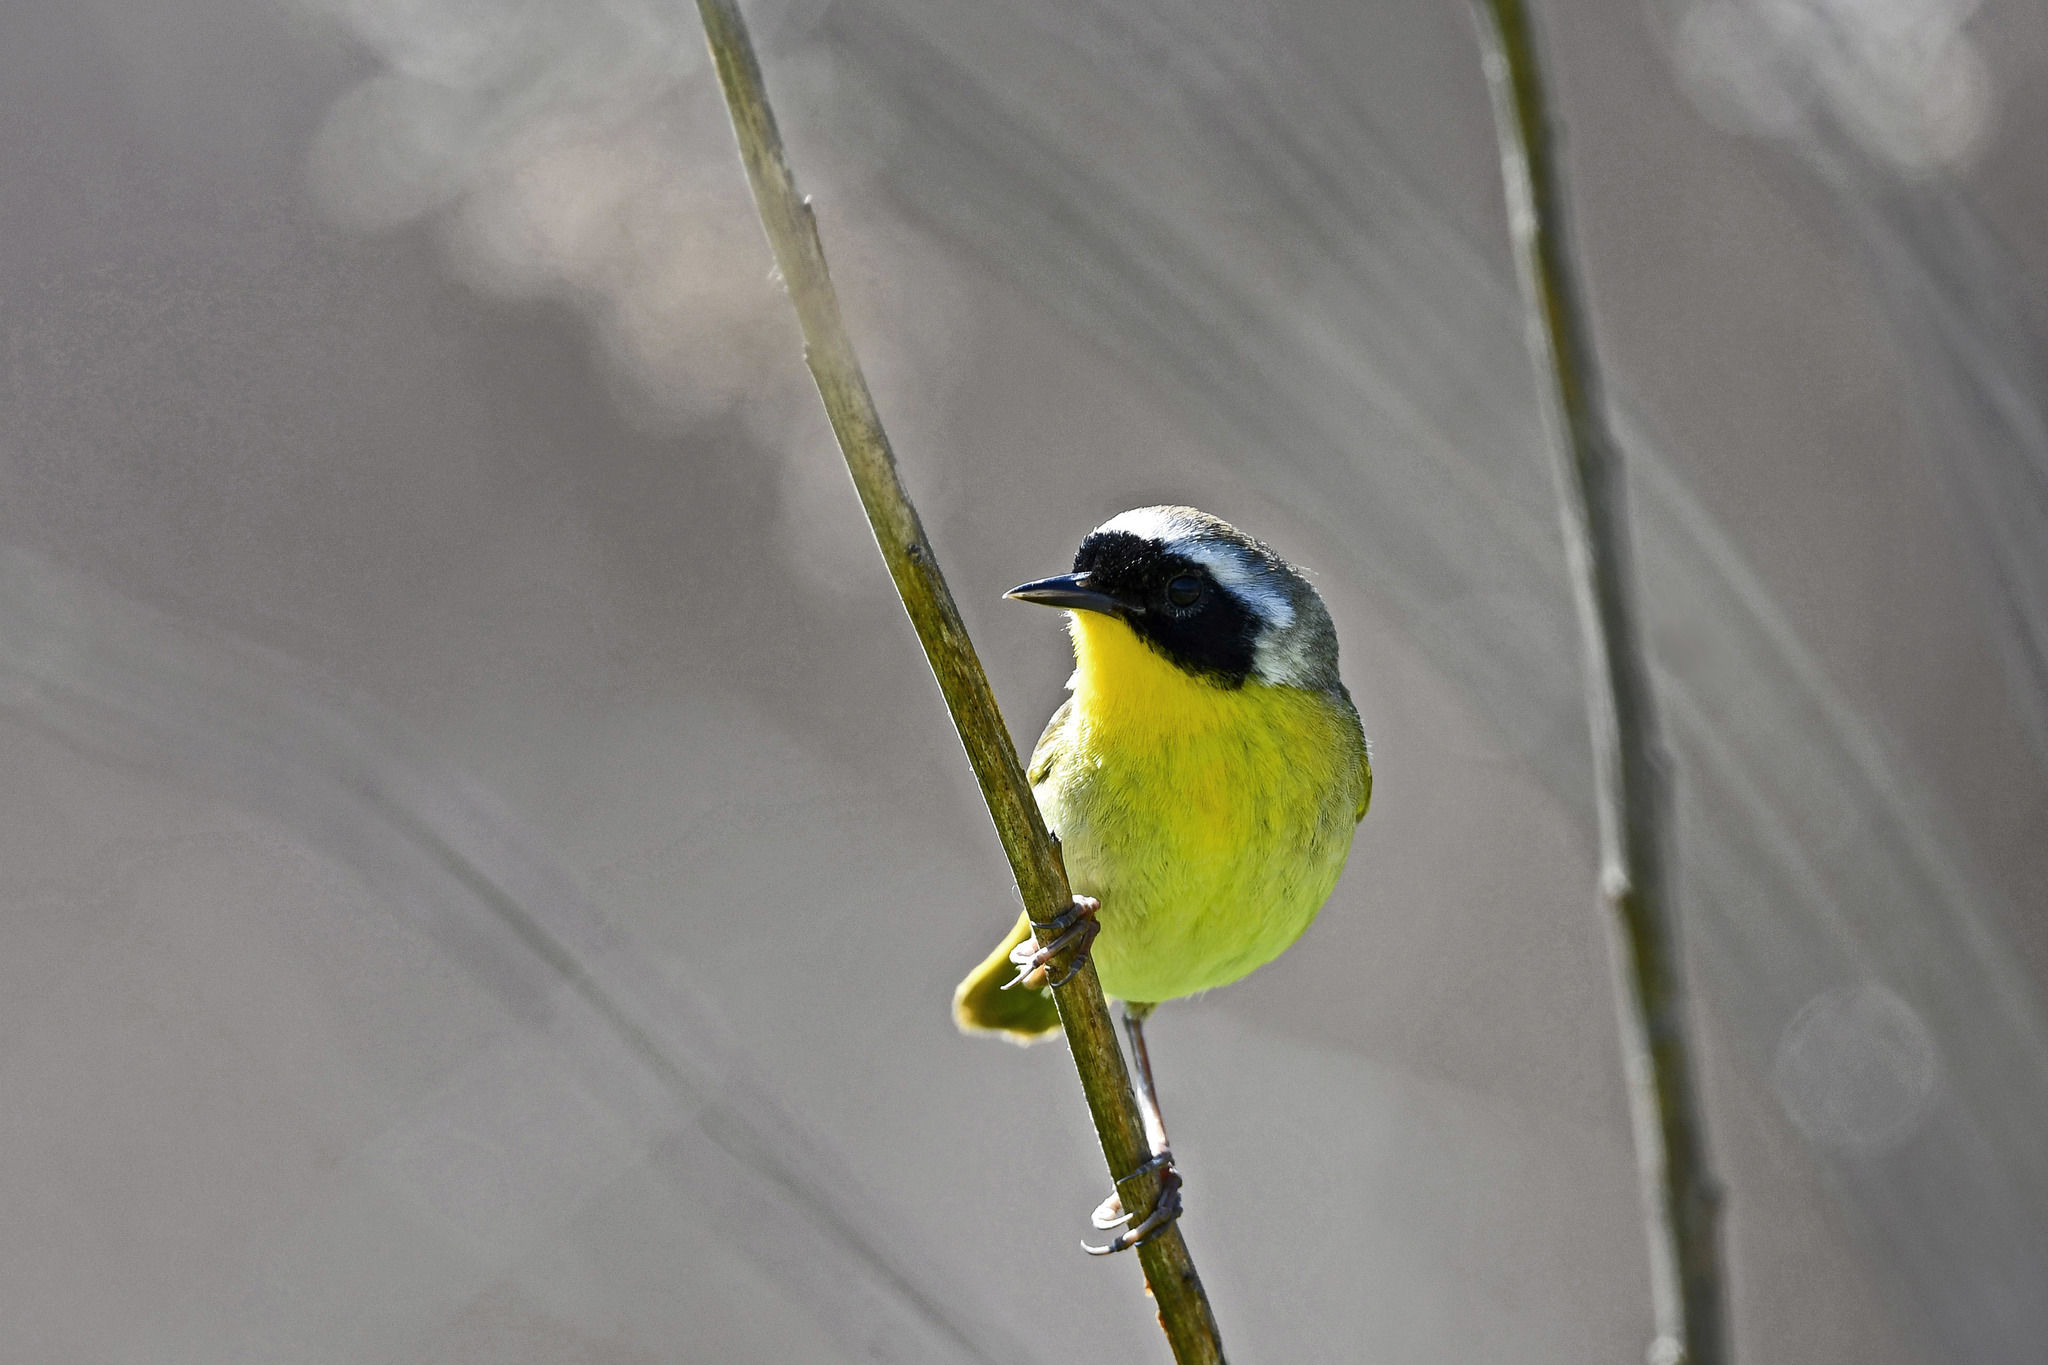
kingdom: Animalia
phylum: Chordata
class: Aves
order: Passeriformes
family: Parulidae
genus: Geothlypis
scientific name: Geothlypis trichas
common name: Common yellowthroat
